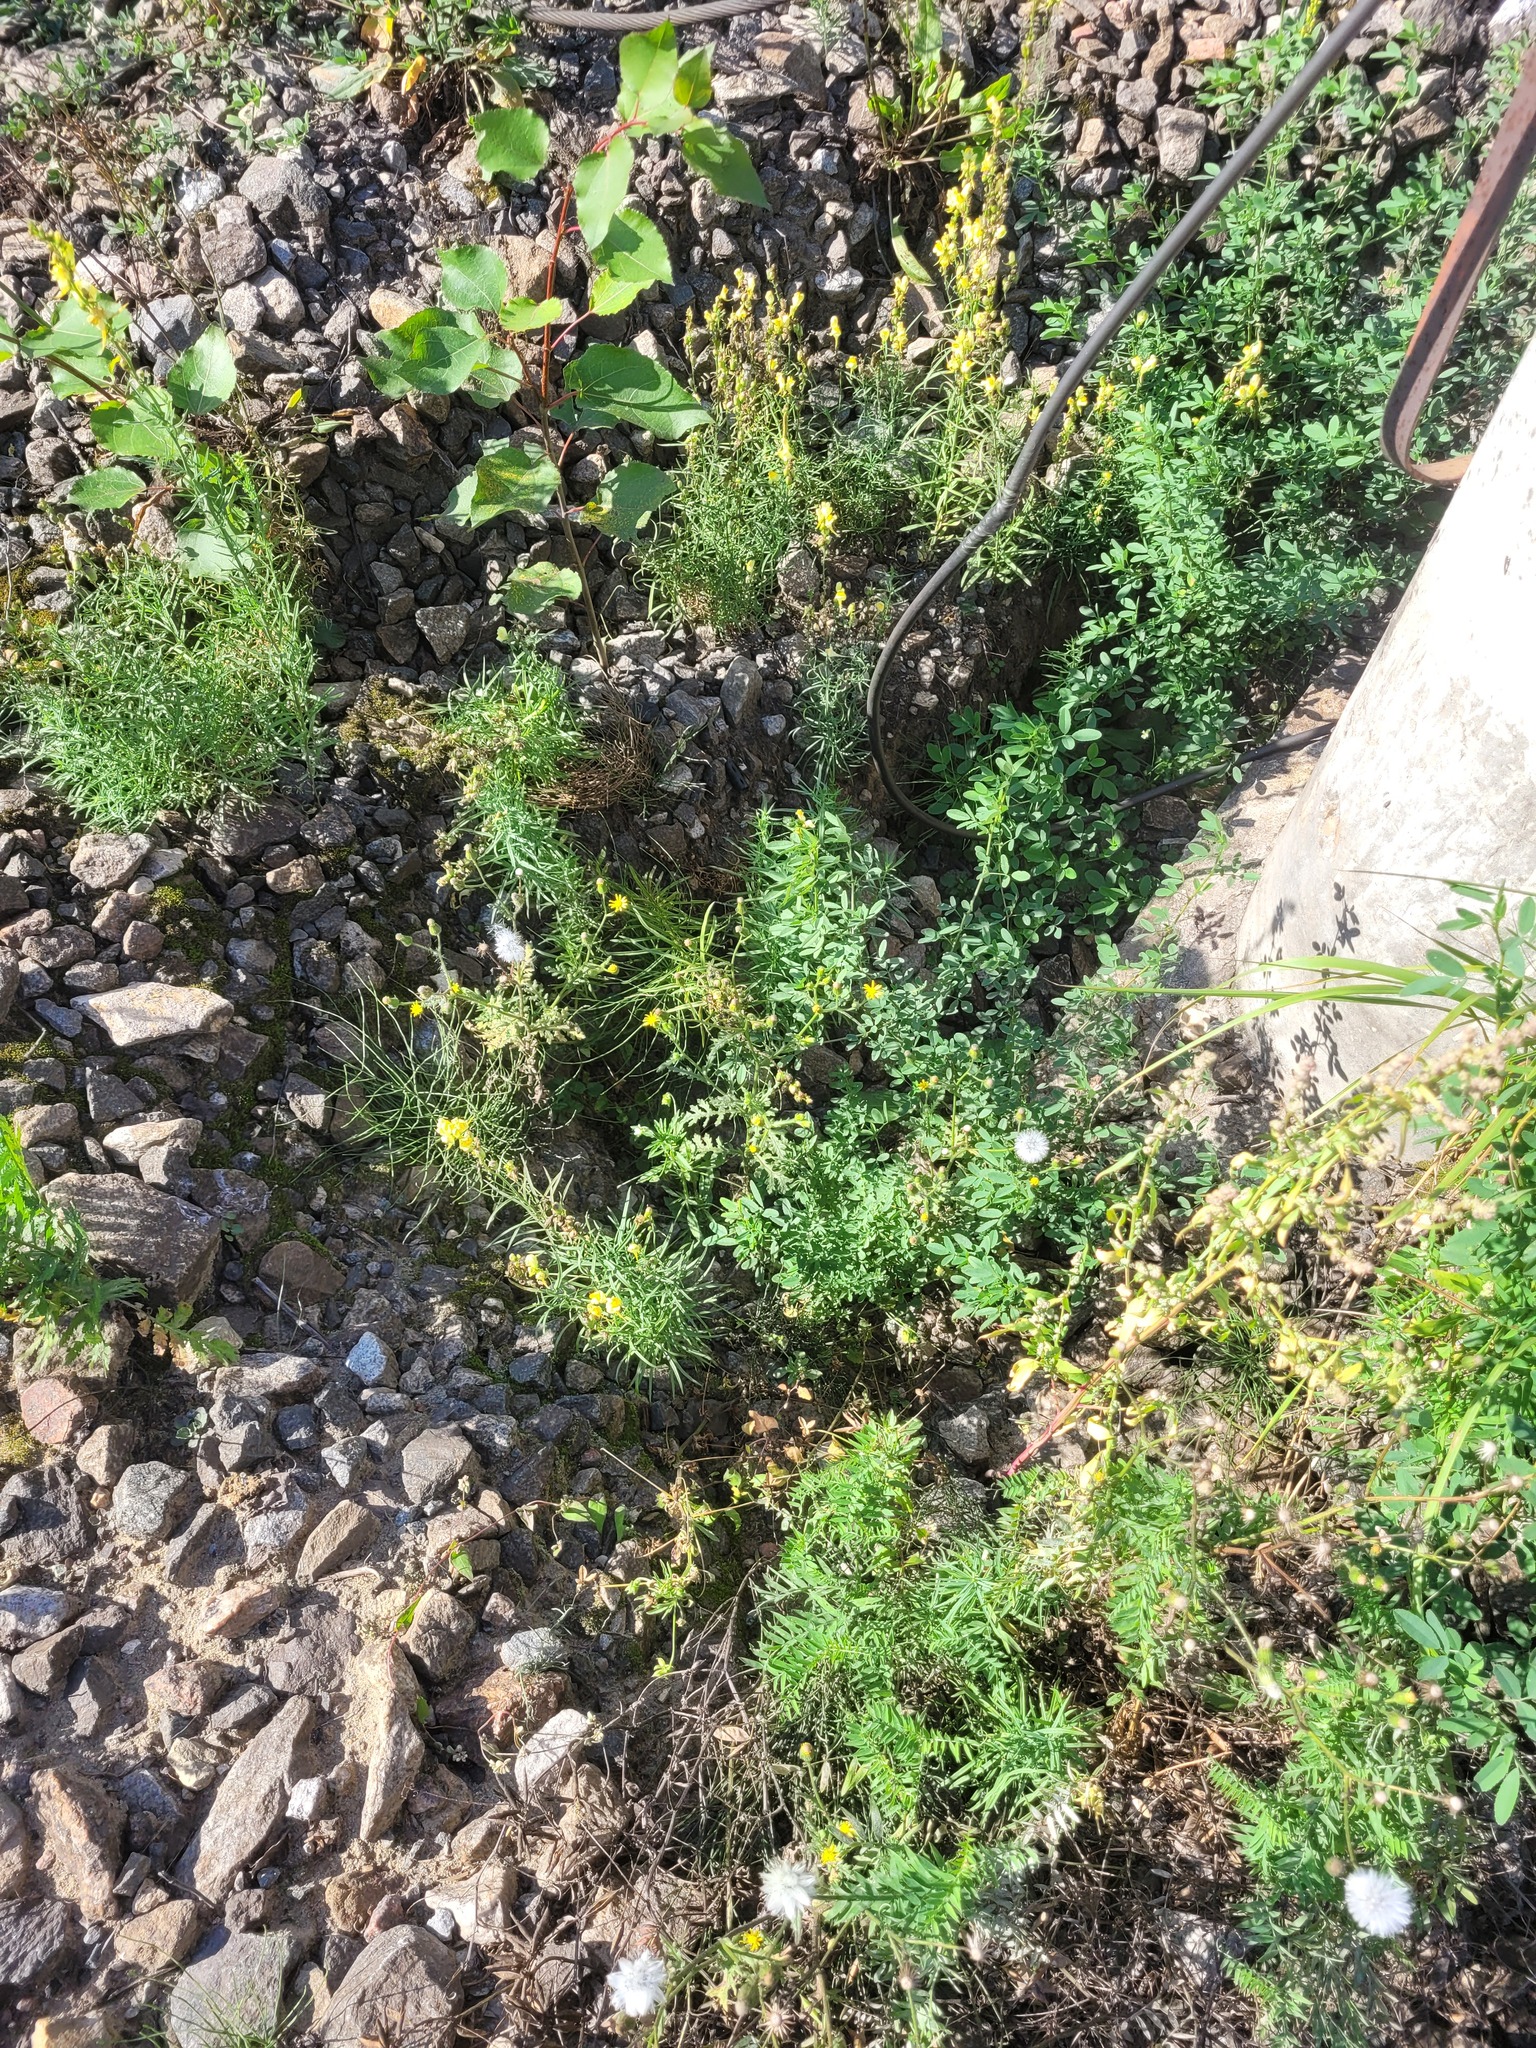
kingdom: Plantae
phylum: Tracheophyta
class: Magnoliopsida
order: Lamiales
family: Plantaginaceae
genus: Linaria
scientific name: Linaria vulgaris
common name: Butter and eggs
